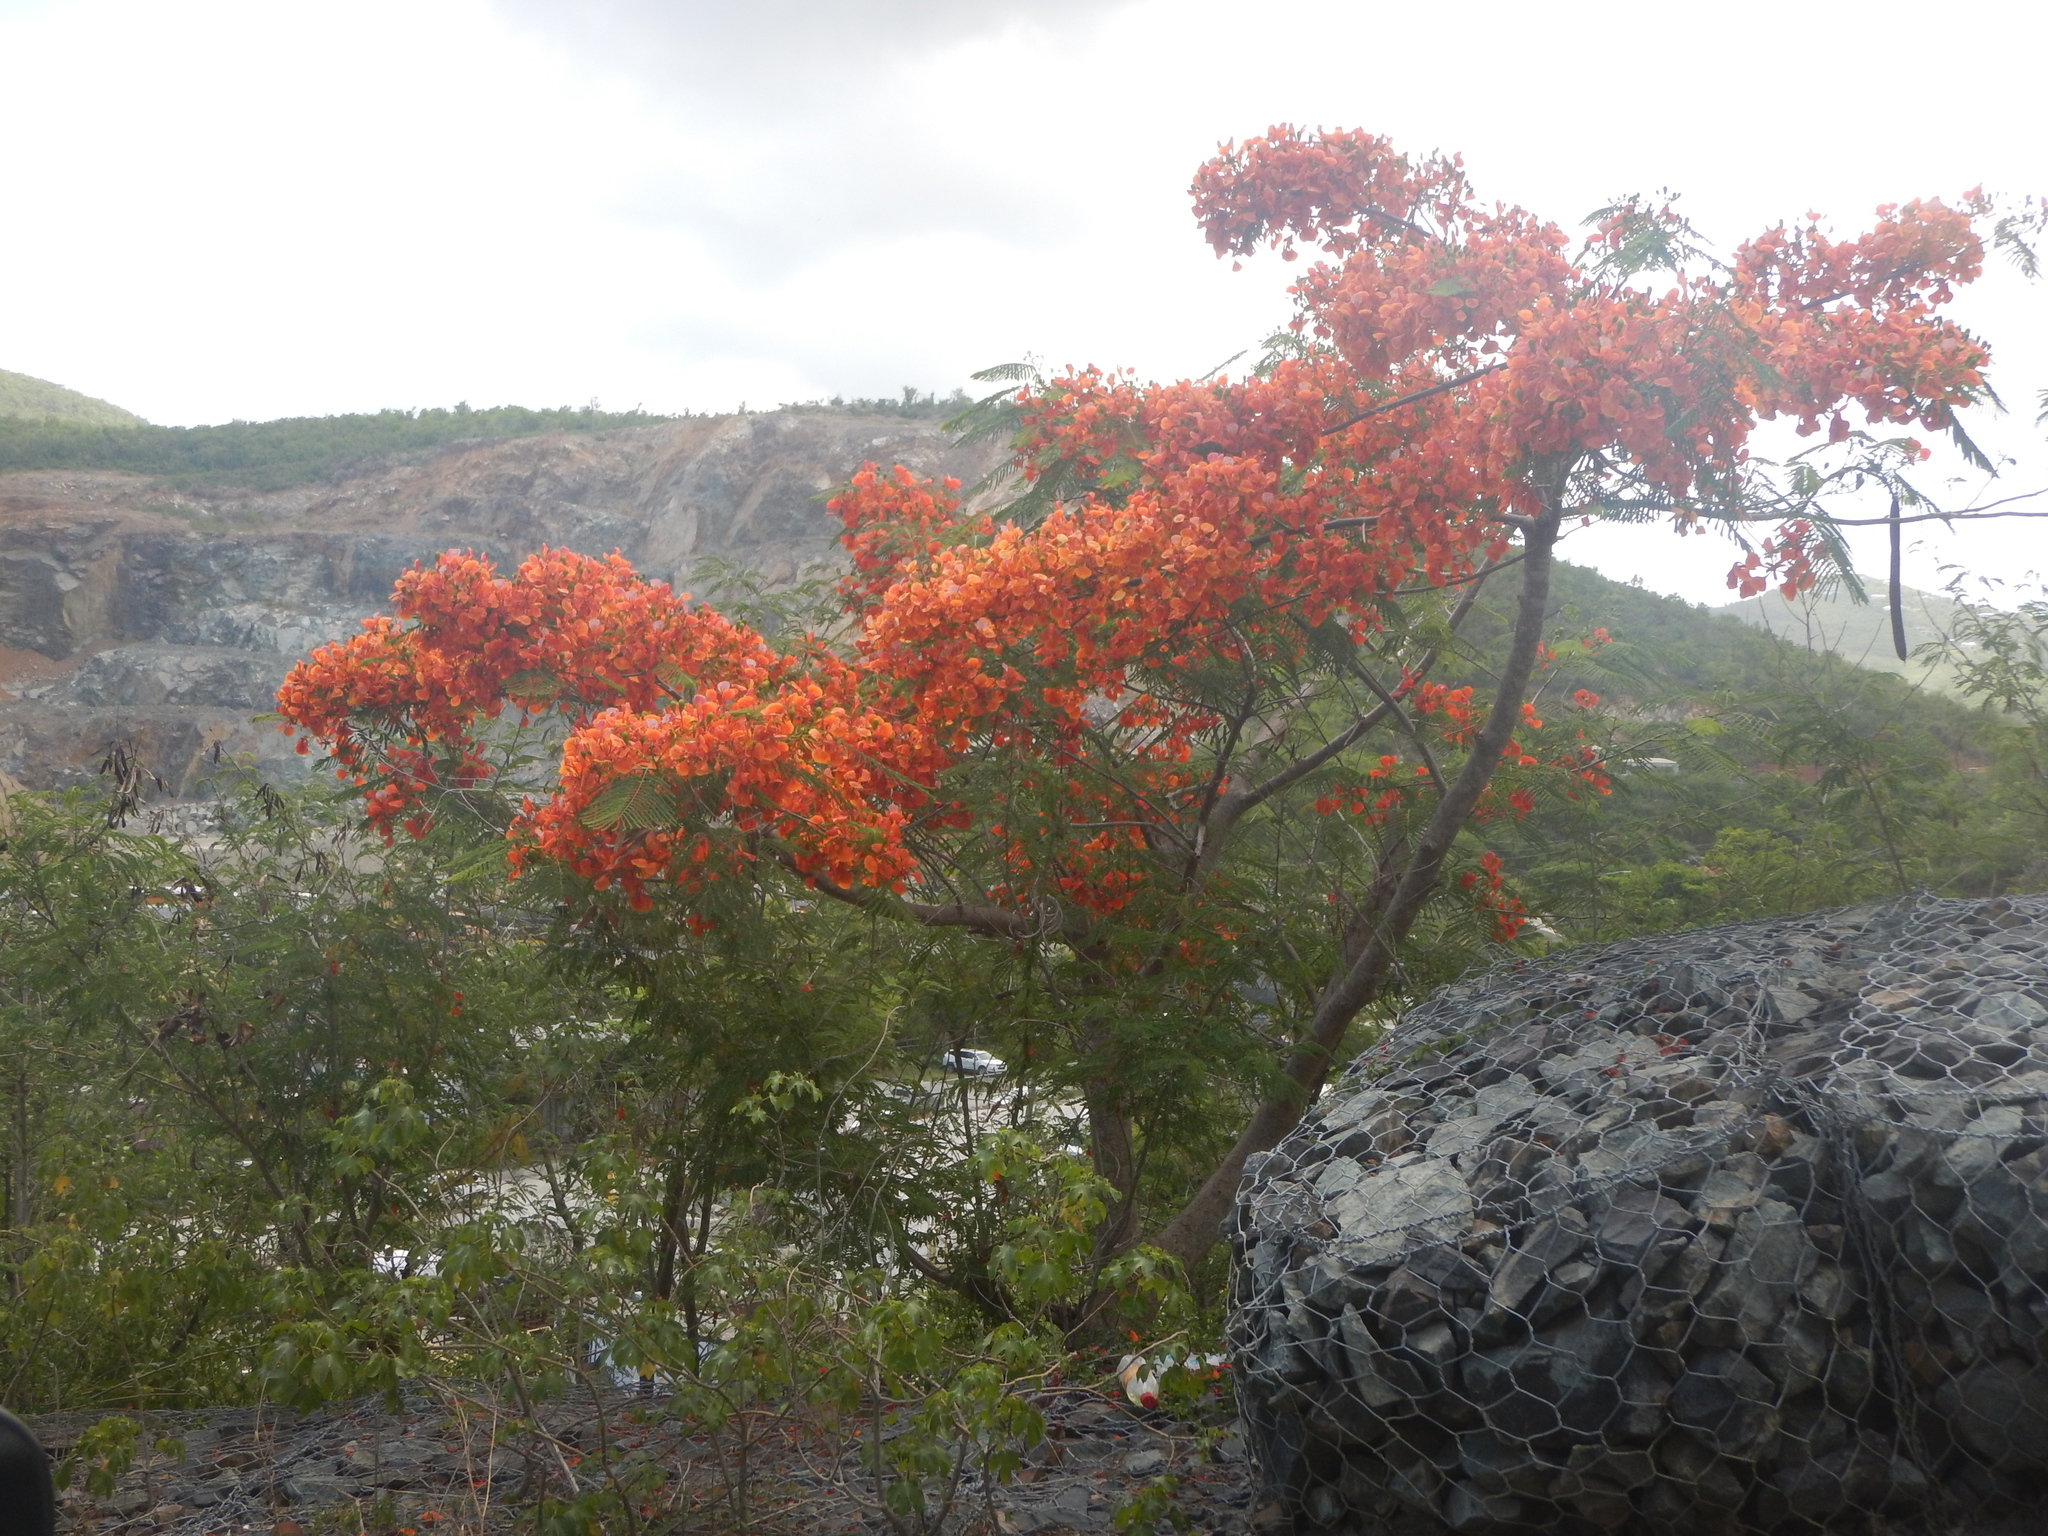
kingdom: Plantae
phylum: Tracheophyta
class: Magnoliopsida
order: Fabales
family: Fabaceae
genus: Delonix
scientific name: Delonix regia
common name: Royal poinciana
